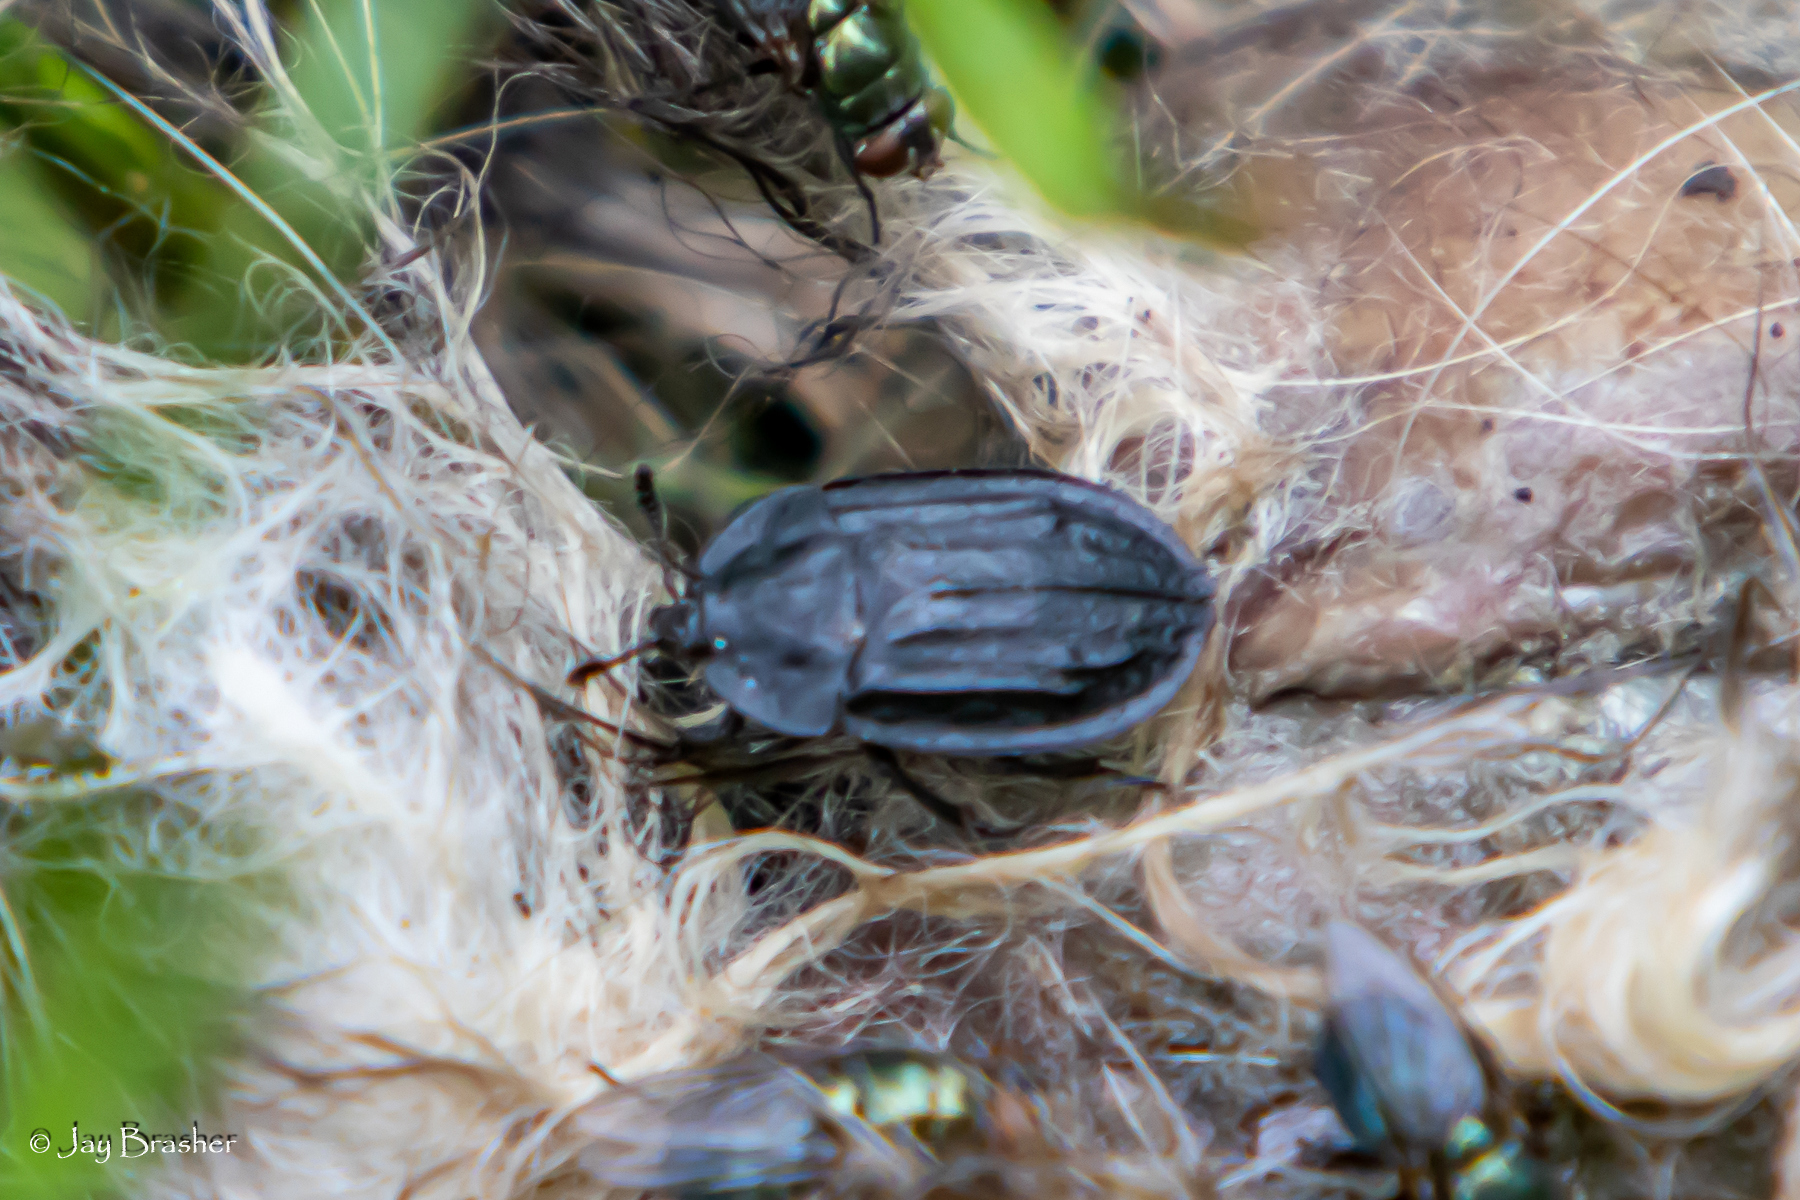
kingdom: Animalia
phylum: Arthropoda
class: Insecta
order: Coleoptera
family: Staphylinidae
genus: Oiceoptoma
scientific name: Oiceoptoma inaequale
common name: Ridged carrion beetle
